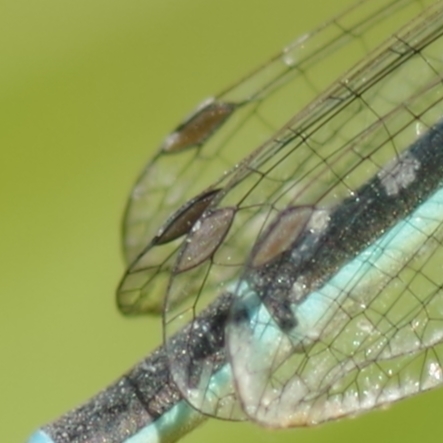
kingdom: Animalia
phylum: Arthropoda
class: Insecta
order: Odonata
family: Coenagrionidae
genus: Coenagrion
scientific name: Coenagrion scitulum
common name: Dainty bluet
